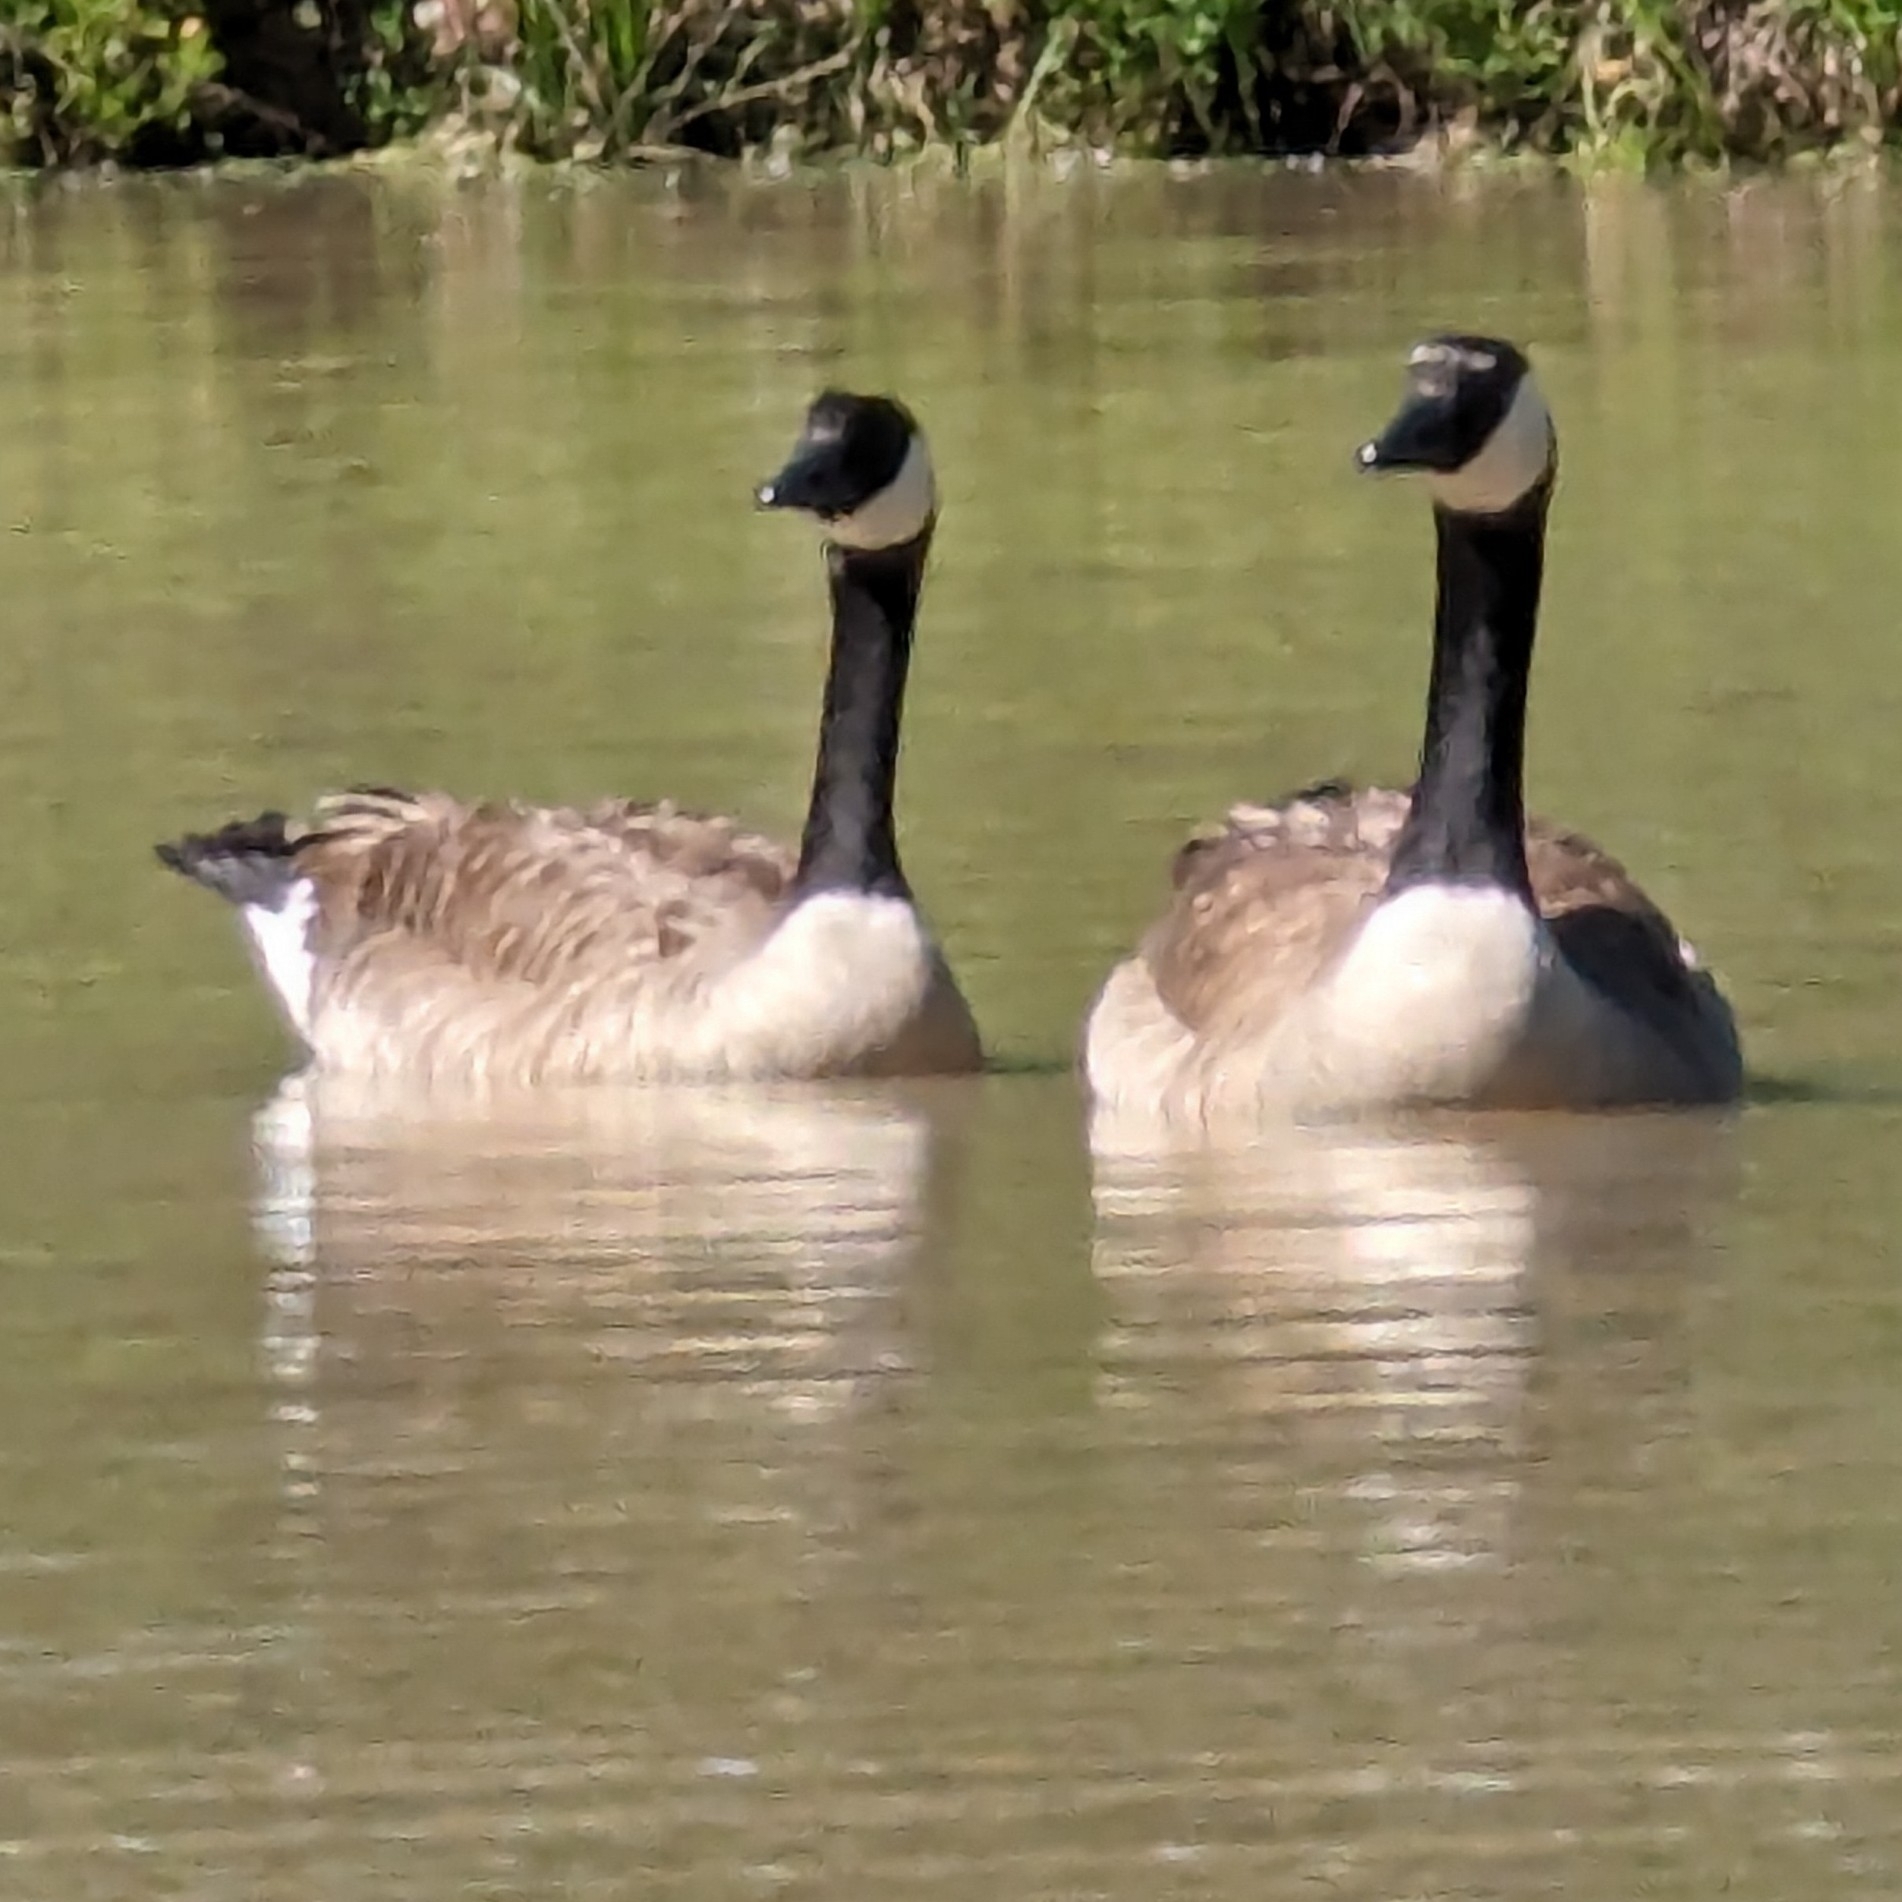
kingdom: Animalia
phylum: Chordata
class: Aves
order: Anseriformes
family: Anatidae
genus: Branta
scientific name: Branta canadensis
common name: Canada goose
